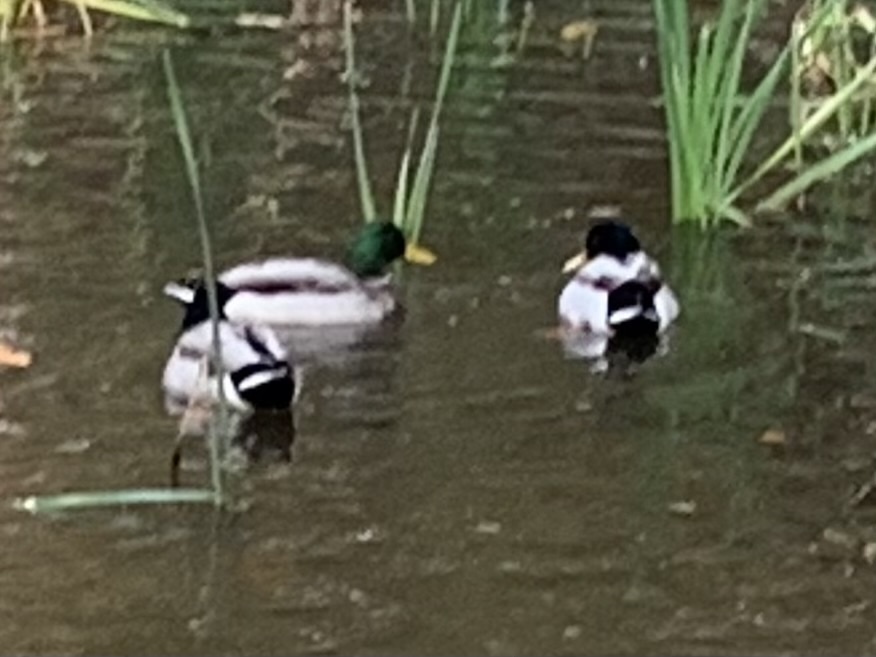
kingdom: Animalia
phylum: Chordata
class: Aves
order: Anseriformes
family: Anatidae
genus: Anas
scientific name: Anas platyrhynchos
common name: Mallard
